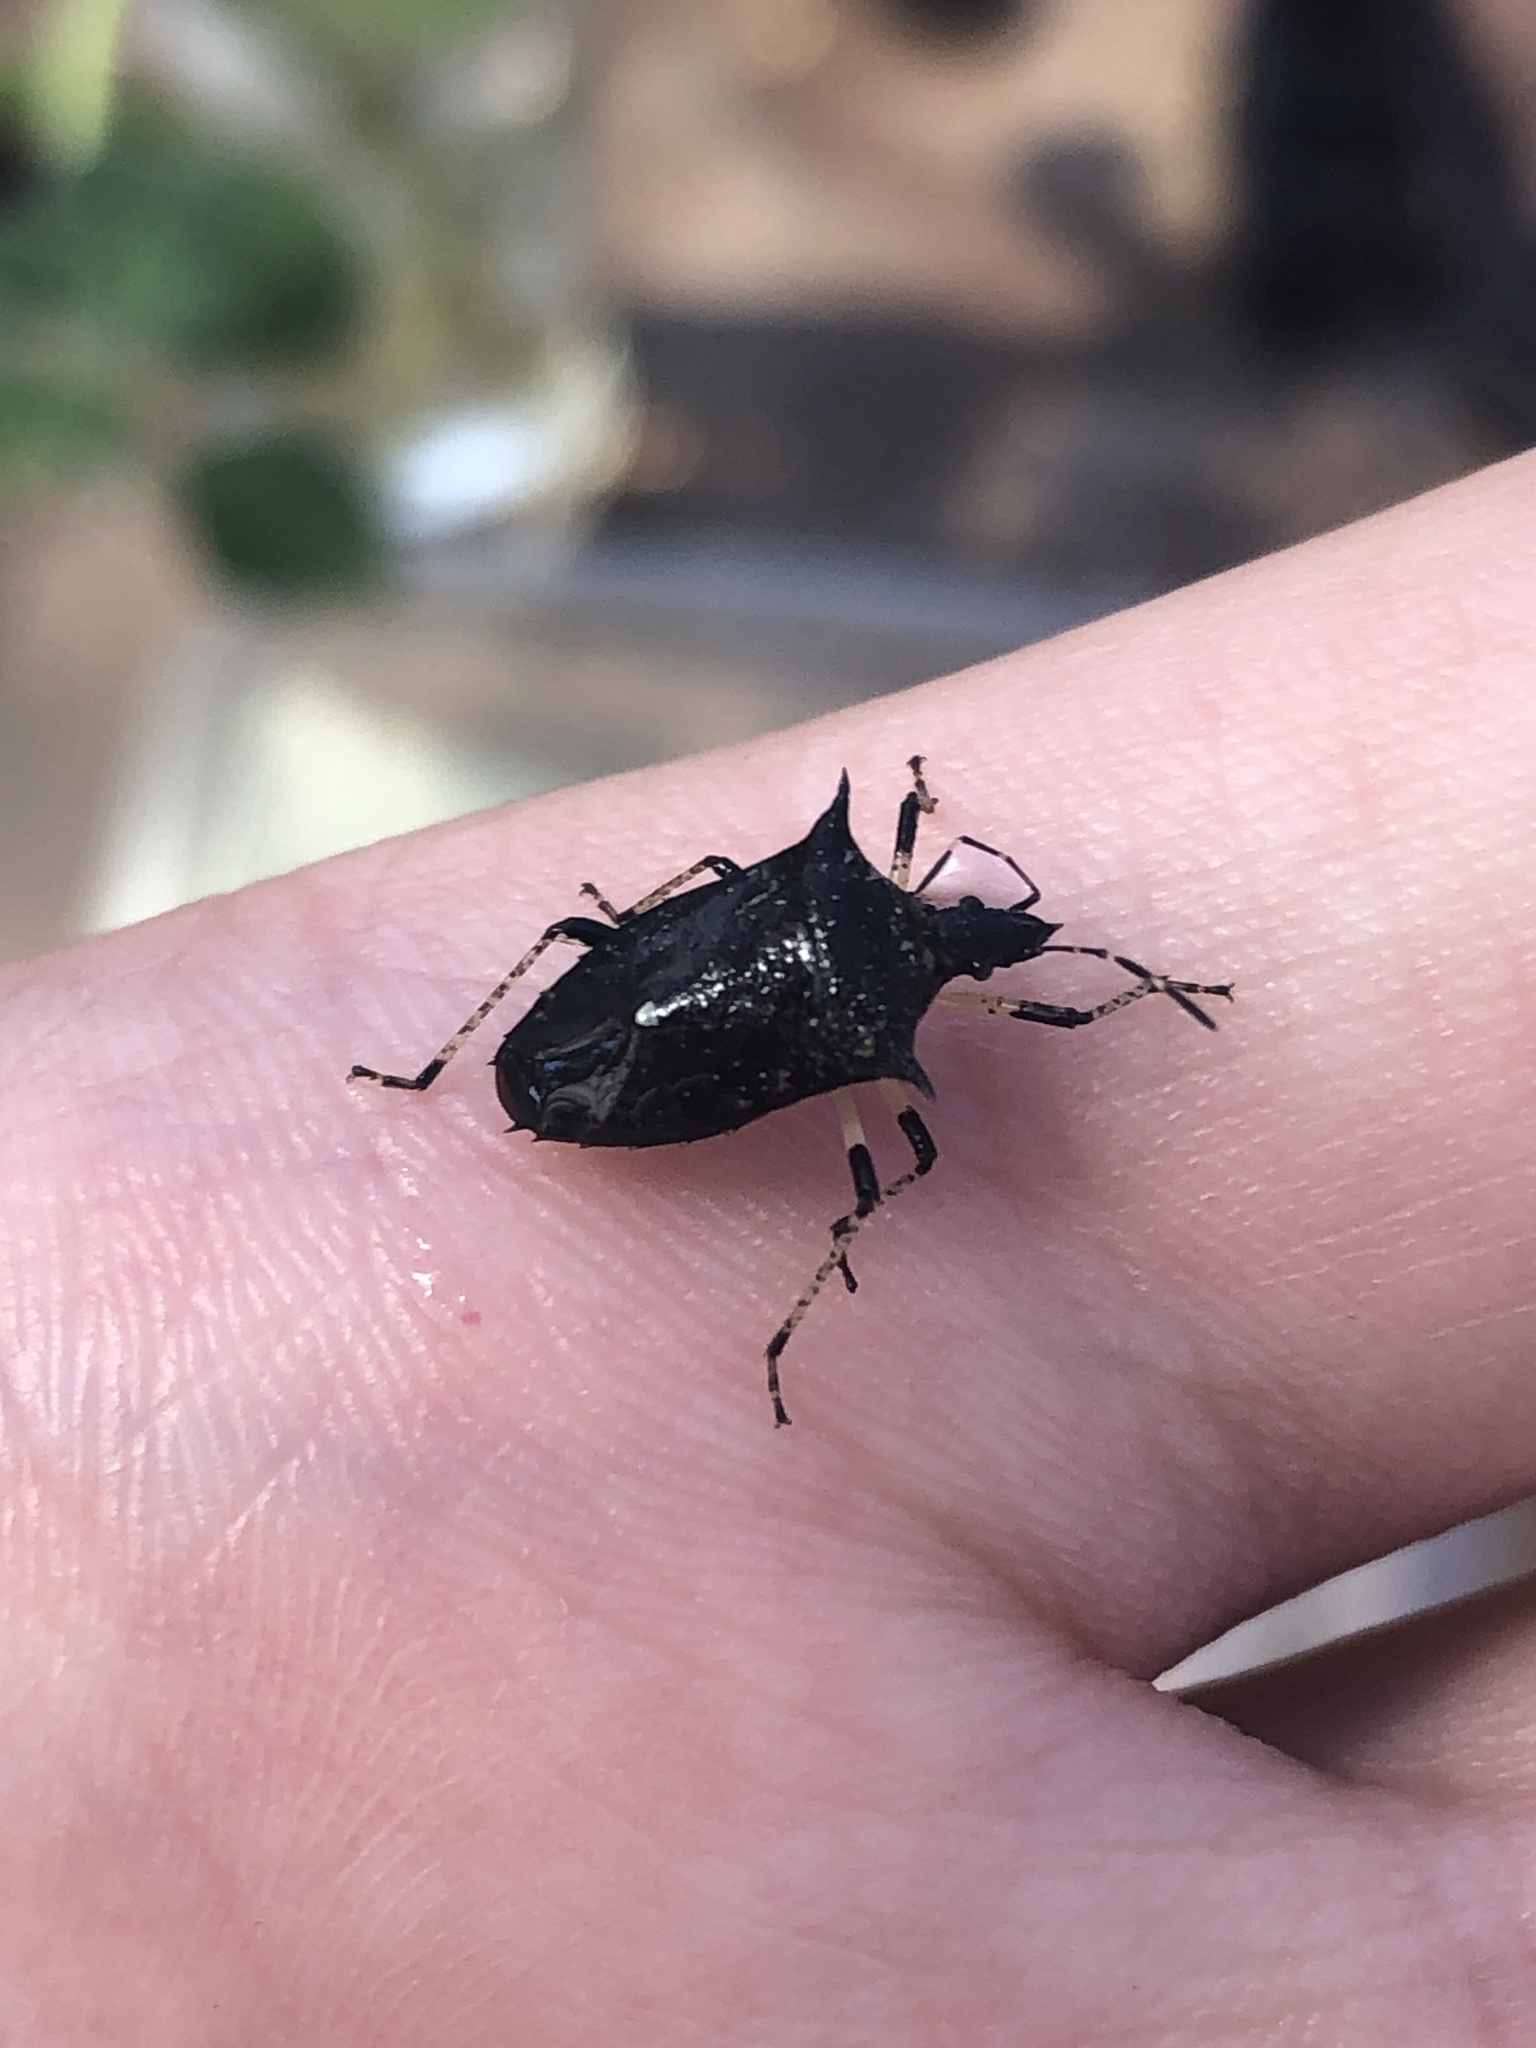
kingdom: Animalia
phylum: Arthropoda
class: Insecta
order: Hemiptera
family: Pentatomidae
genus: Proxys
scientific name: Proxys punctulatus
